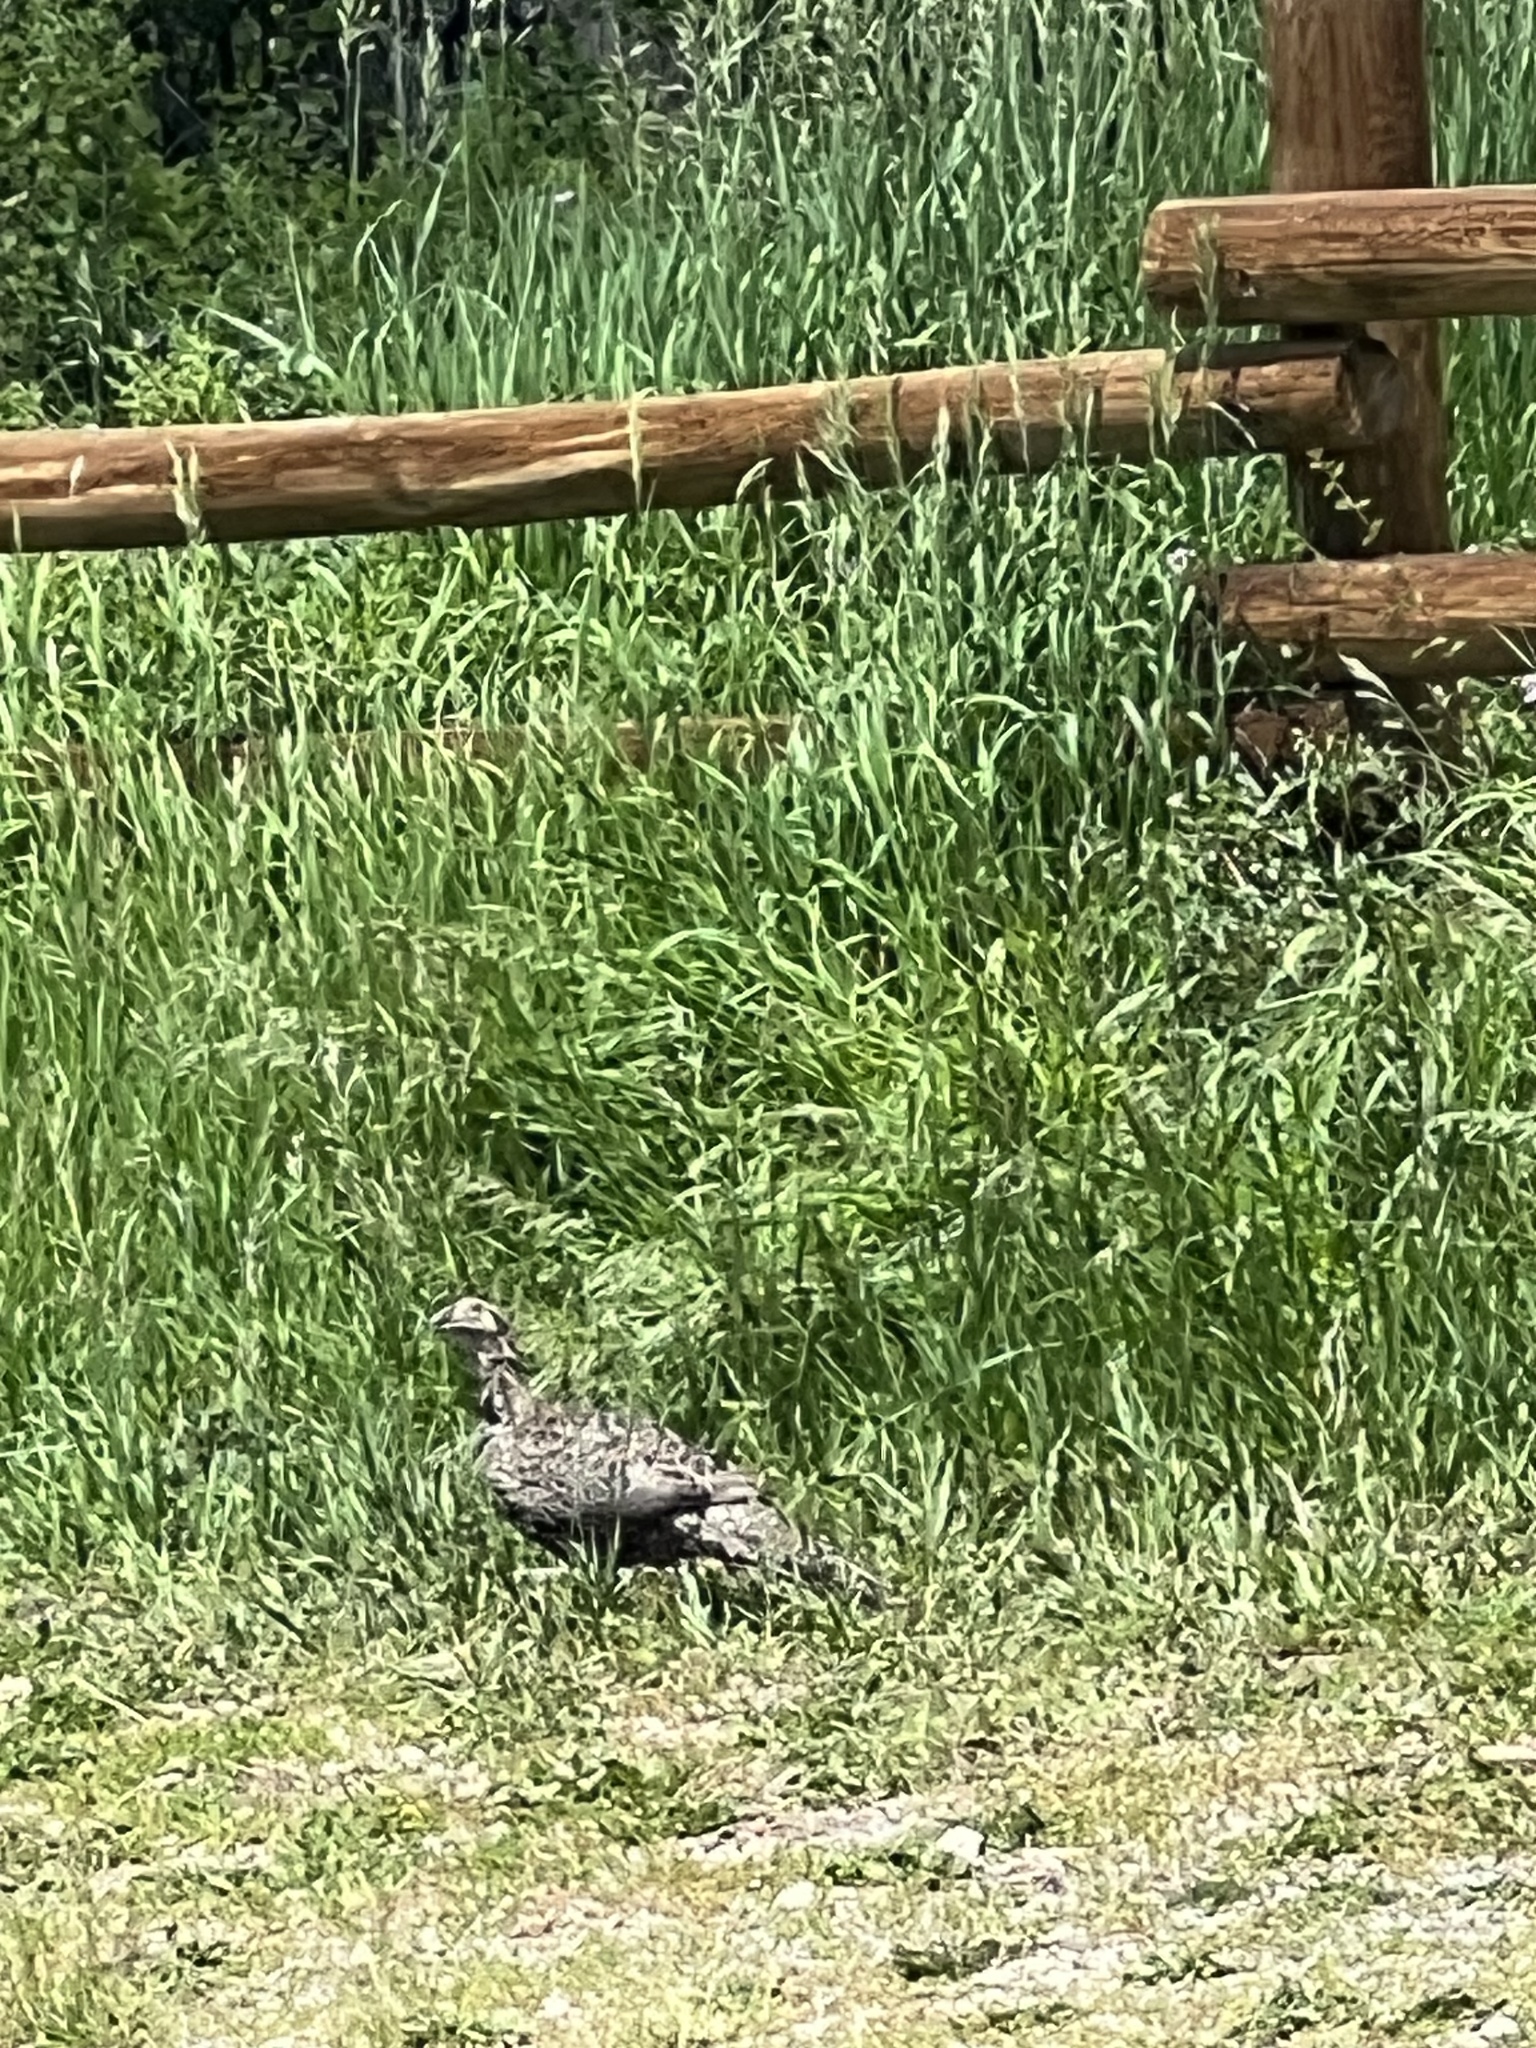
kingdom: Animalia
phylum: Chordata
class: Aves
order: Galliformes
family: Phasianidae
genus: Centrocercus
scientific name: Centrocercus urophasianus
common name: Sage grouse
